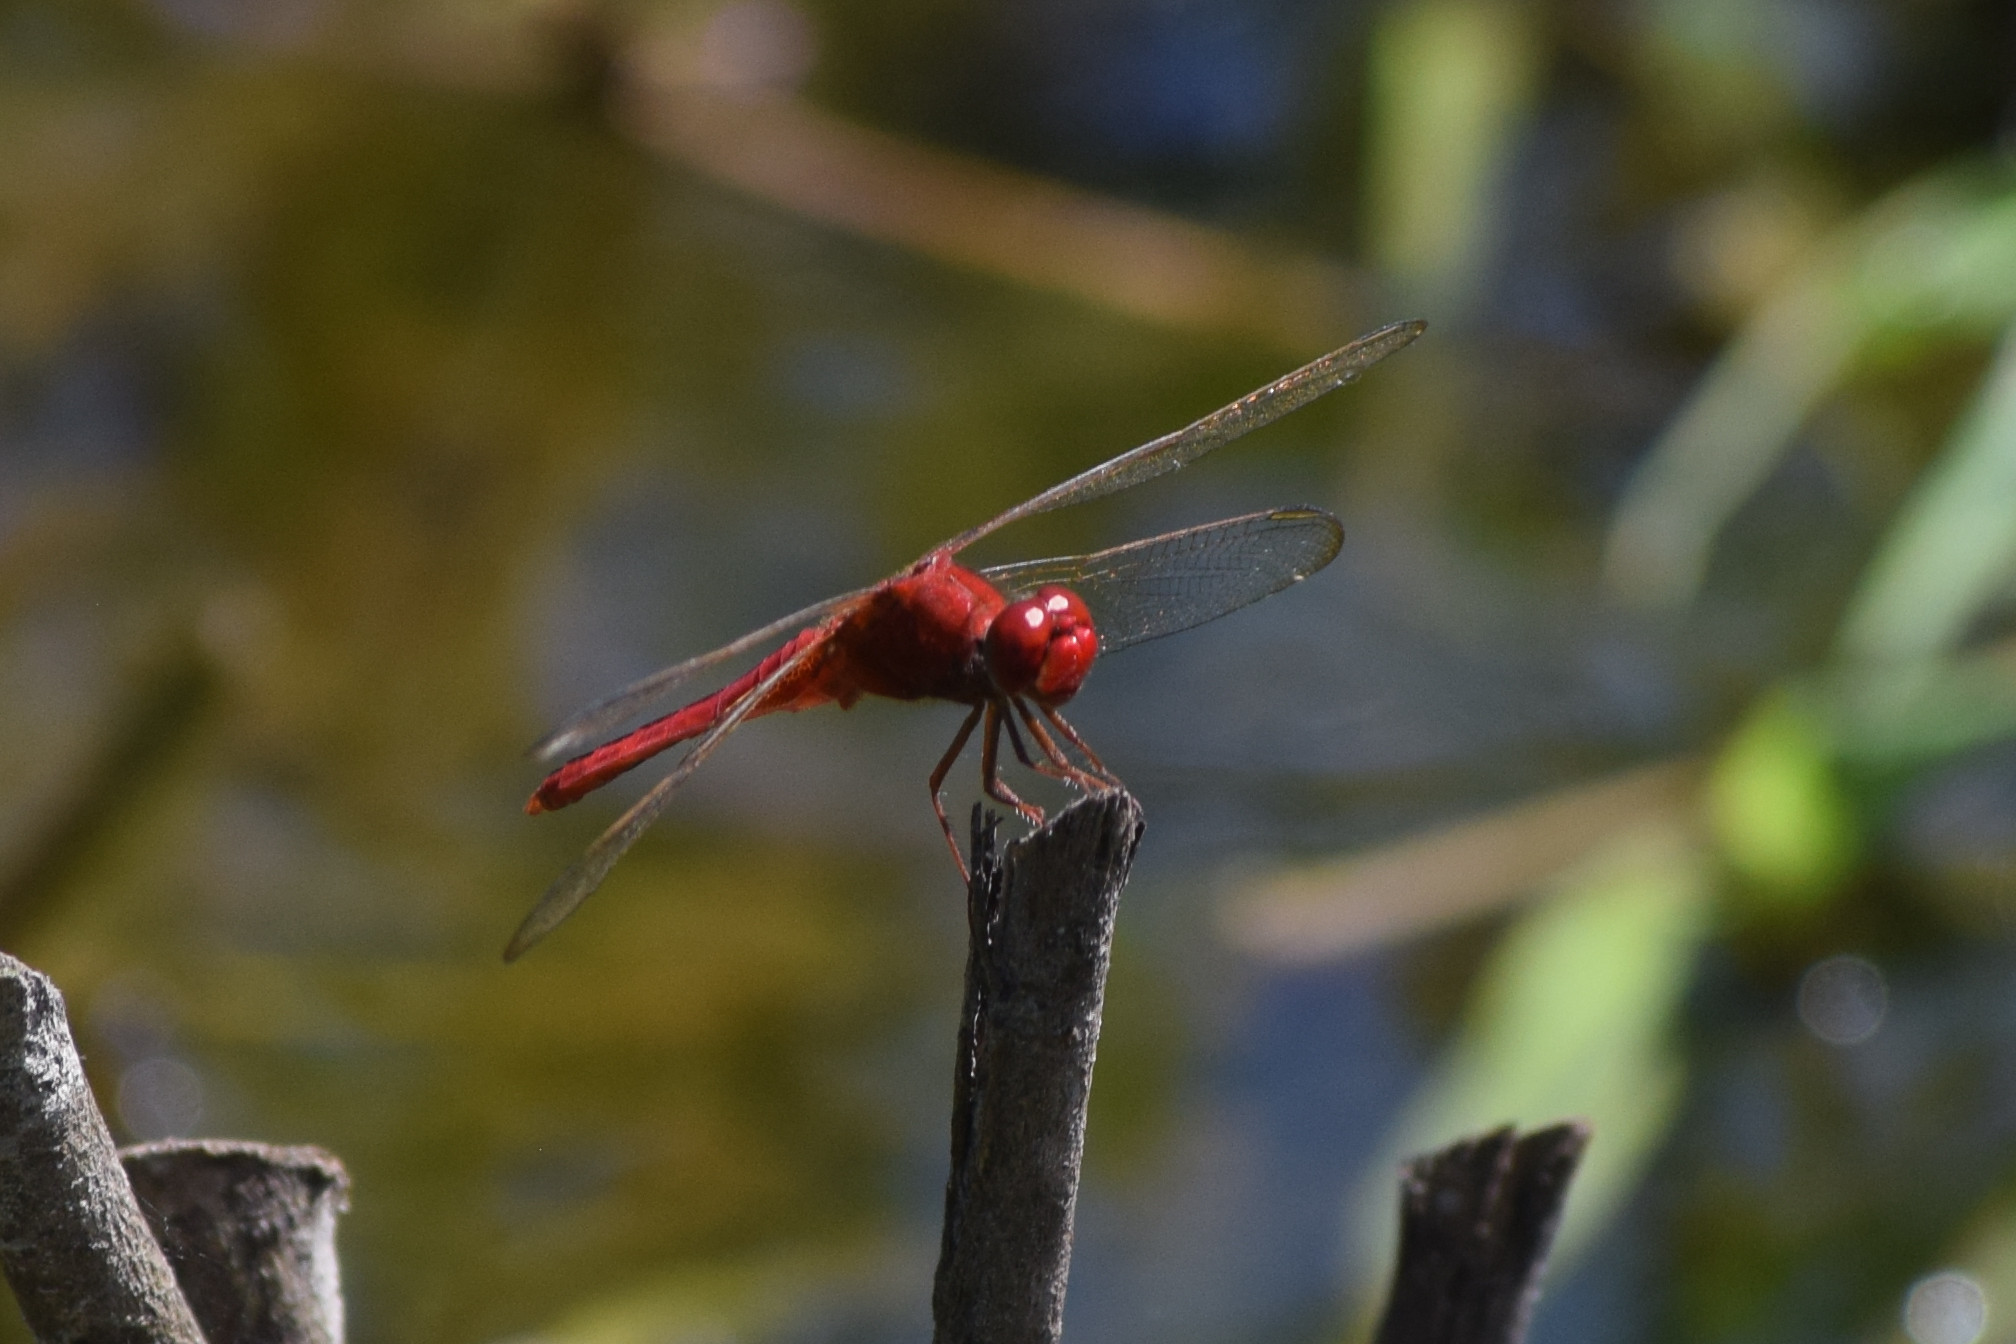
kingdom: Animalia
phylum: Arthropoda
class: Insecta
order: Odonata
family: Libellulidae
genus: Crocothemis
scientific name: Crocothemis servilia
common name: Scarlet skimmer
